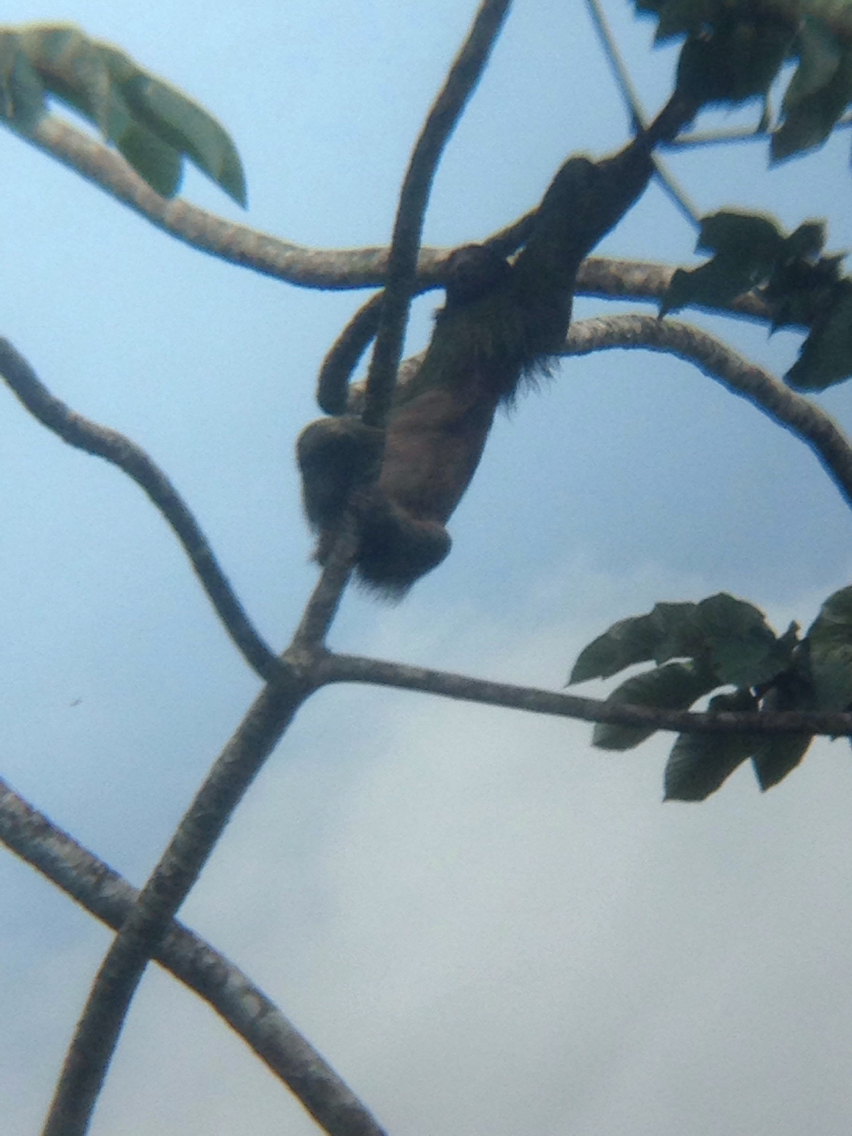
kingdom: Animalia
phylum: Chordata
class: Mammalia
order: Pilosa
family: Bradypodidae
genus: Bradypus
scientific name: Bradypus variegatus
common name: Brown-throated three-toed sloth
